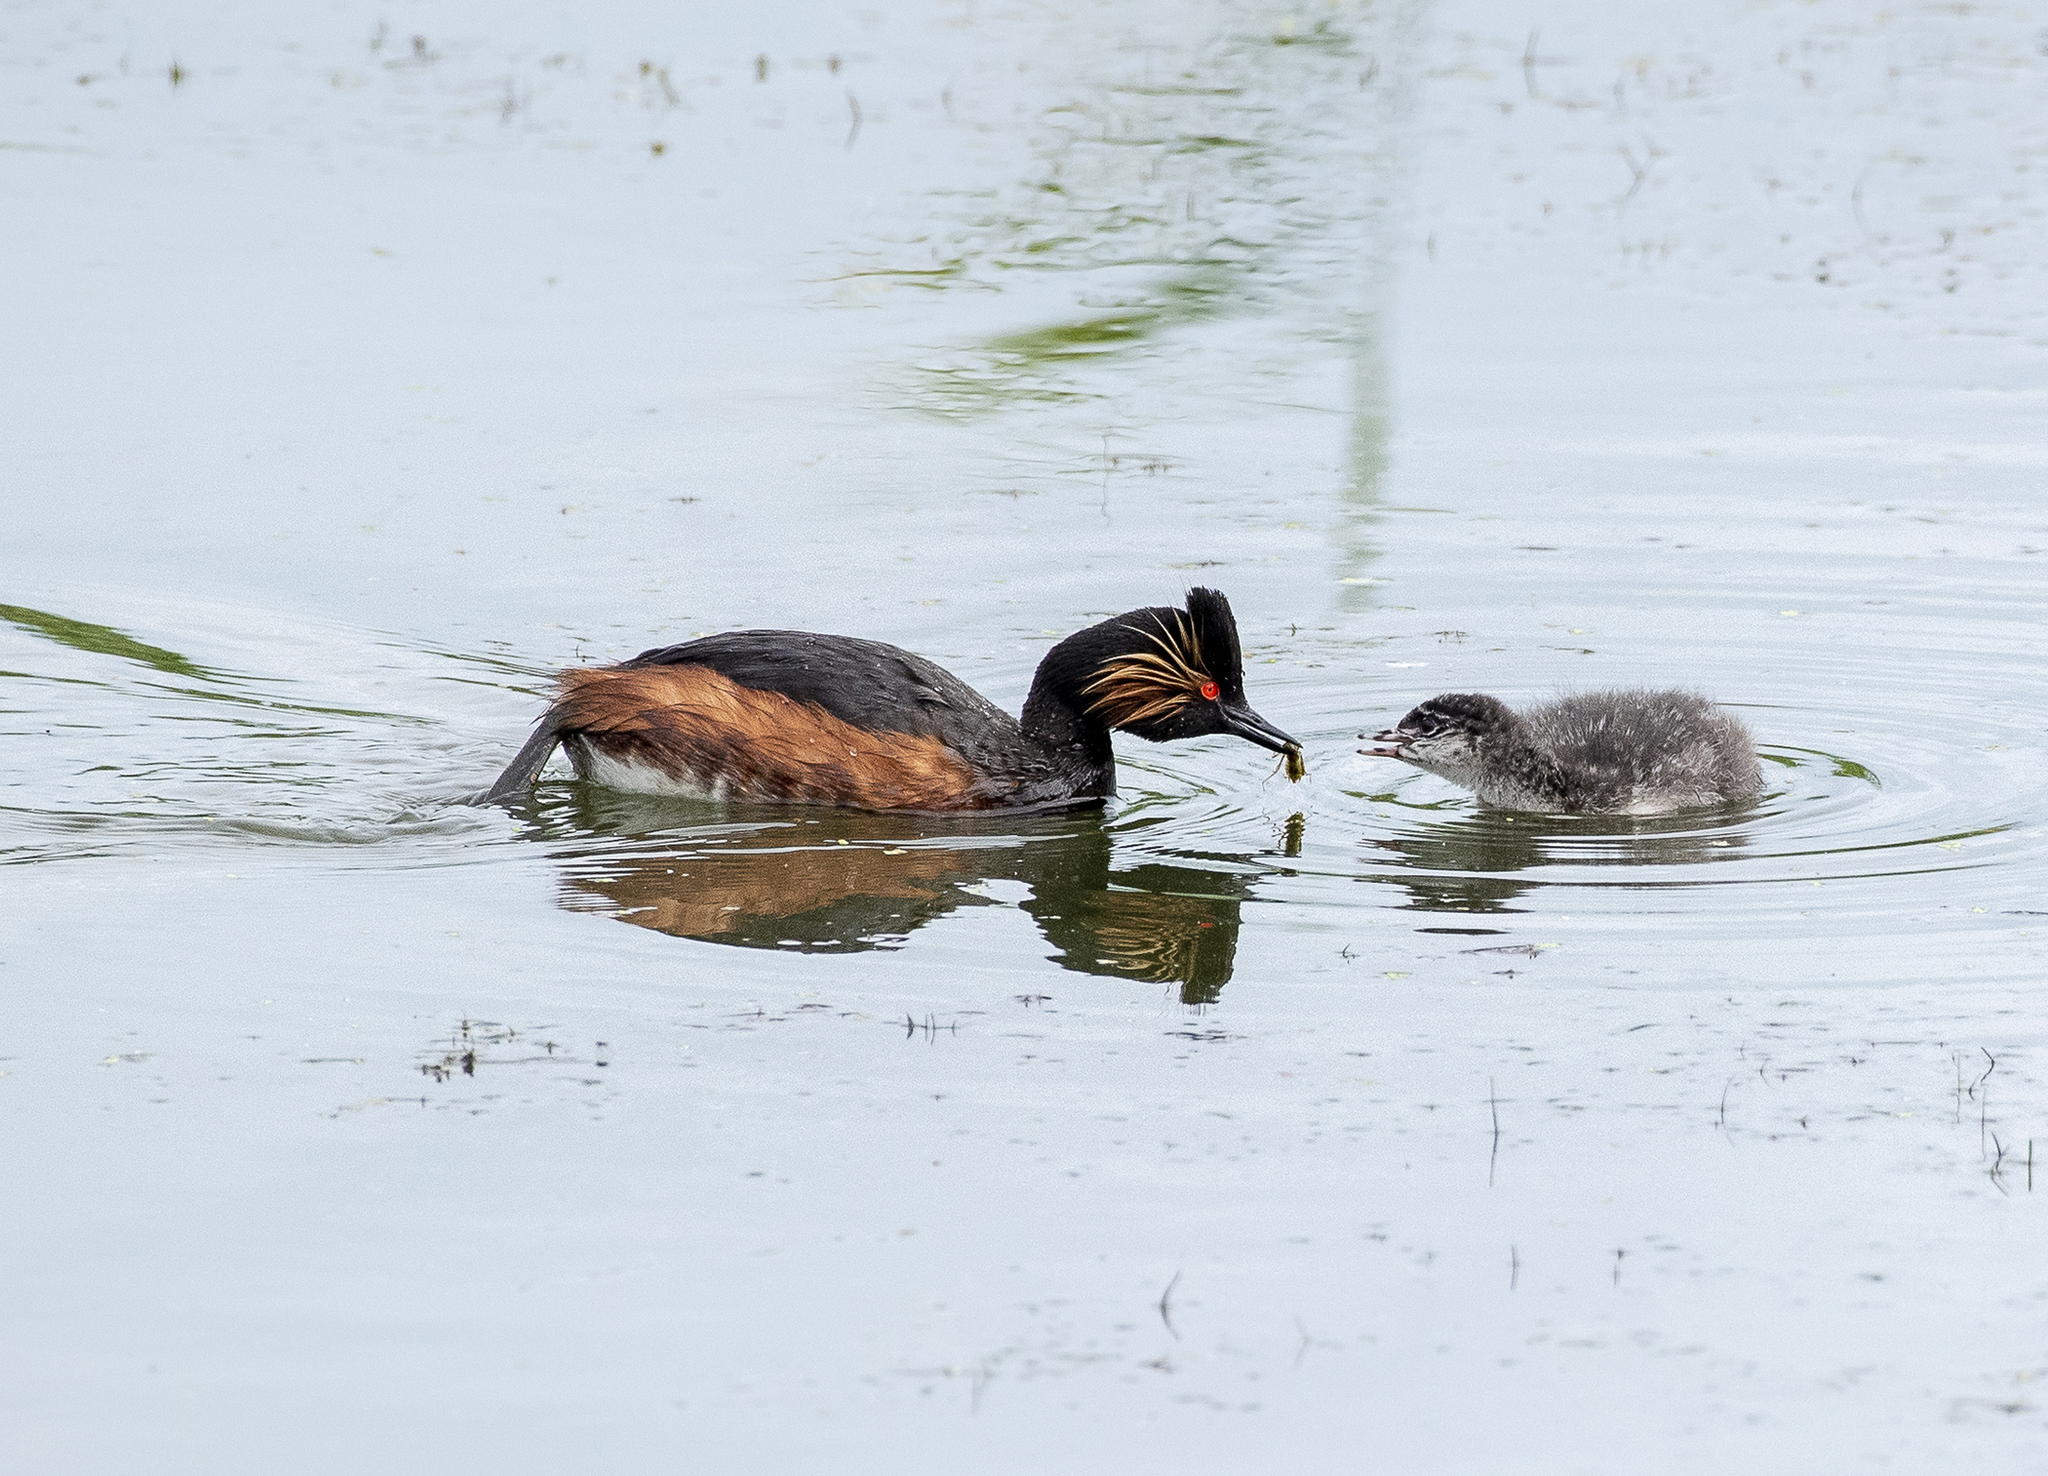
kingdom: Animalia
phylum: Chordata
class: Aves
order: Podicipediformes
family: Podicipedidae
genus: Podiceps
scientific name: Podiceps nigricollis
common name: Black-necked grebe
